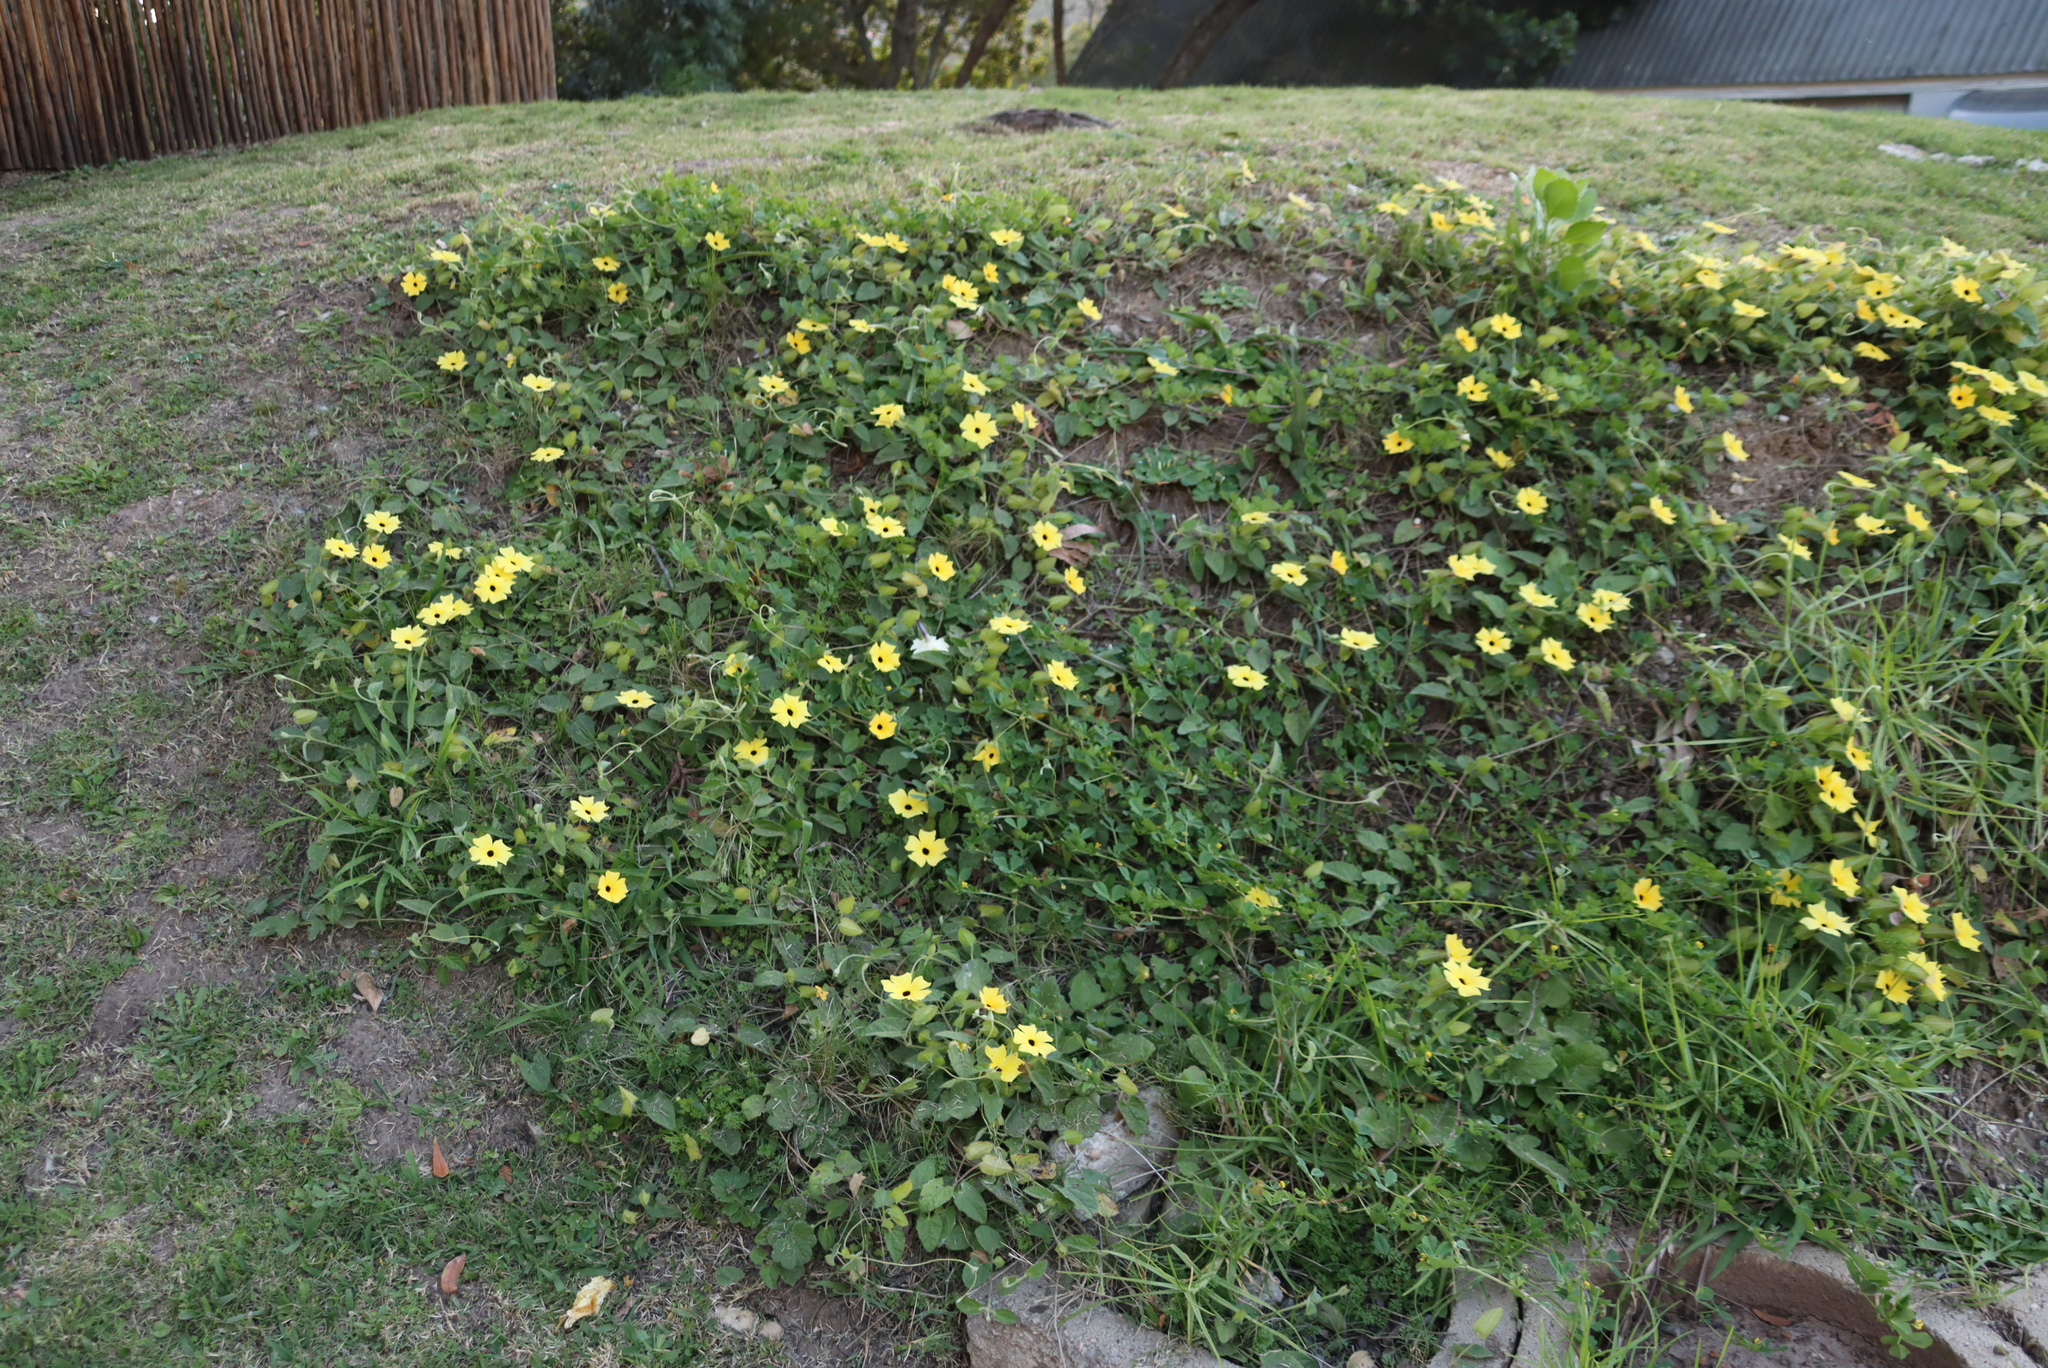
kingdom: Plantae
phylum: Tracheophyta
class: Magnoliopsida
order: Lamiales
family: Acanthaceae
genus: Thunbergia
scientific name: Thunbergia alata
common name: Blackeyed susan vine
